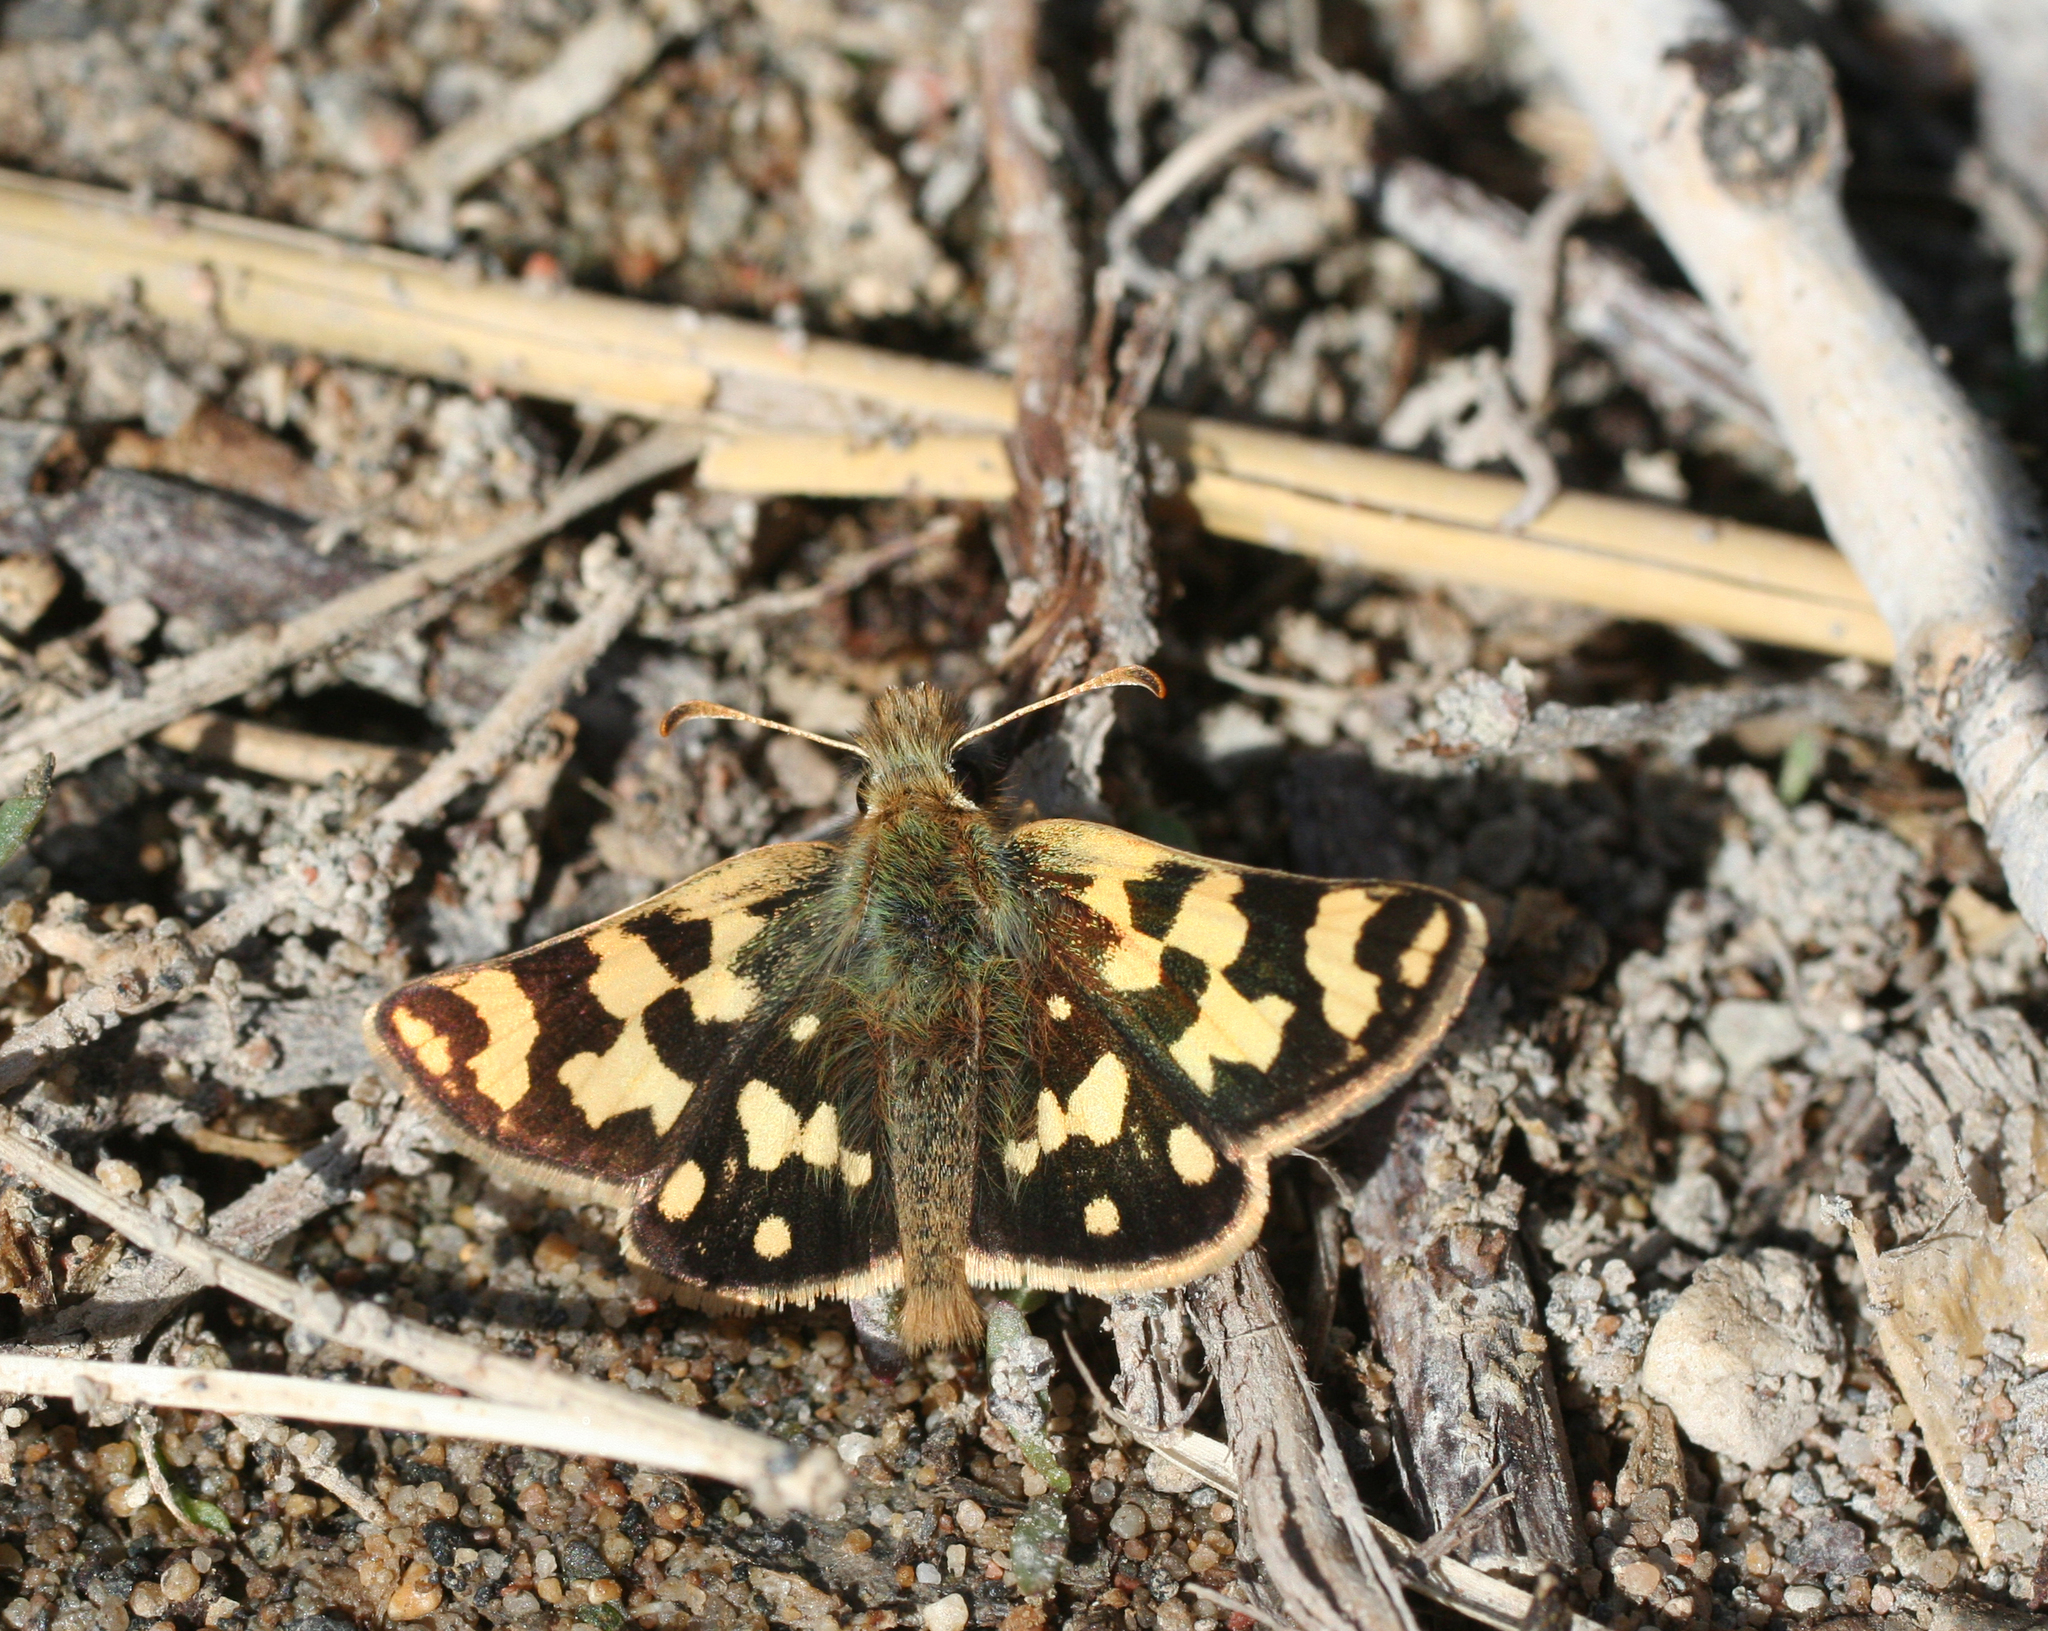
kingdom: Animalia
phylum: Arthropoda
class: Insecta
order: Lepidoptera
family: Hesperiidae
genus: Carterocephalus
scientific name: Carterocephalus argyrostigma
